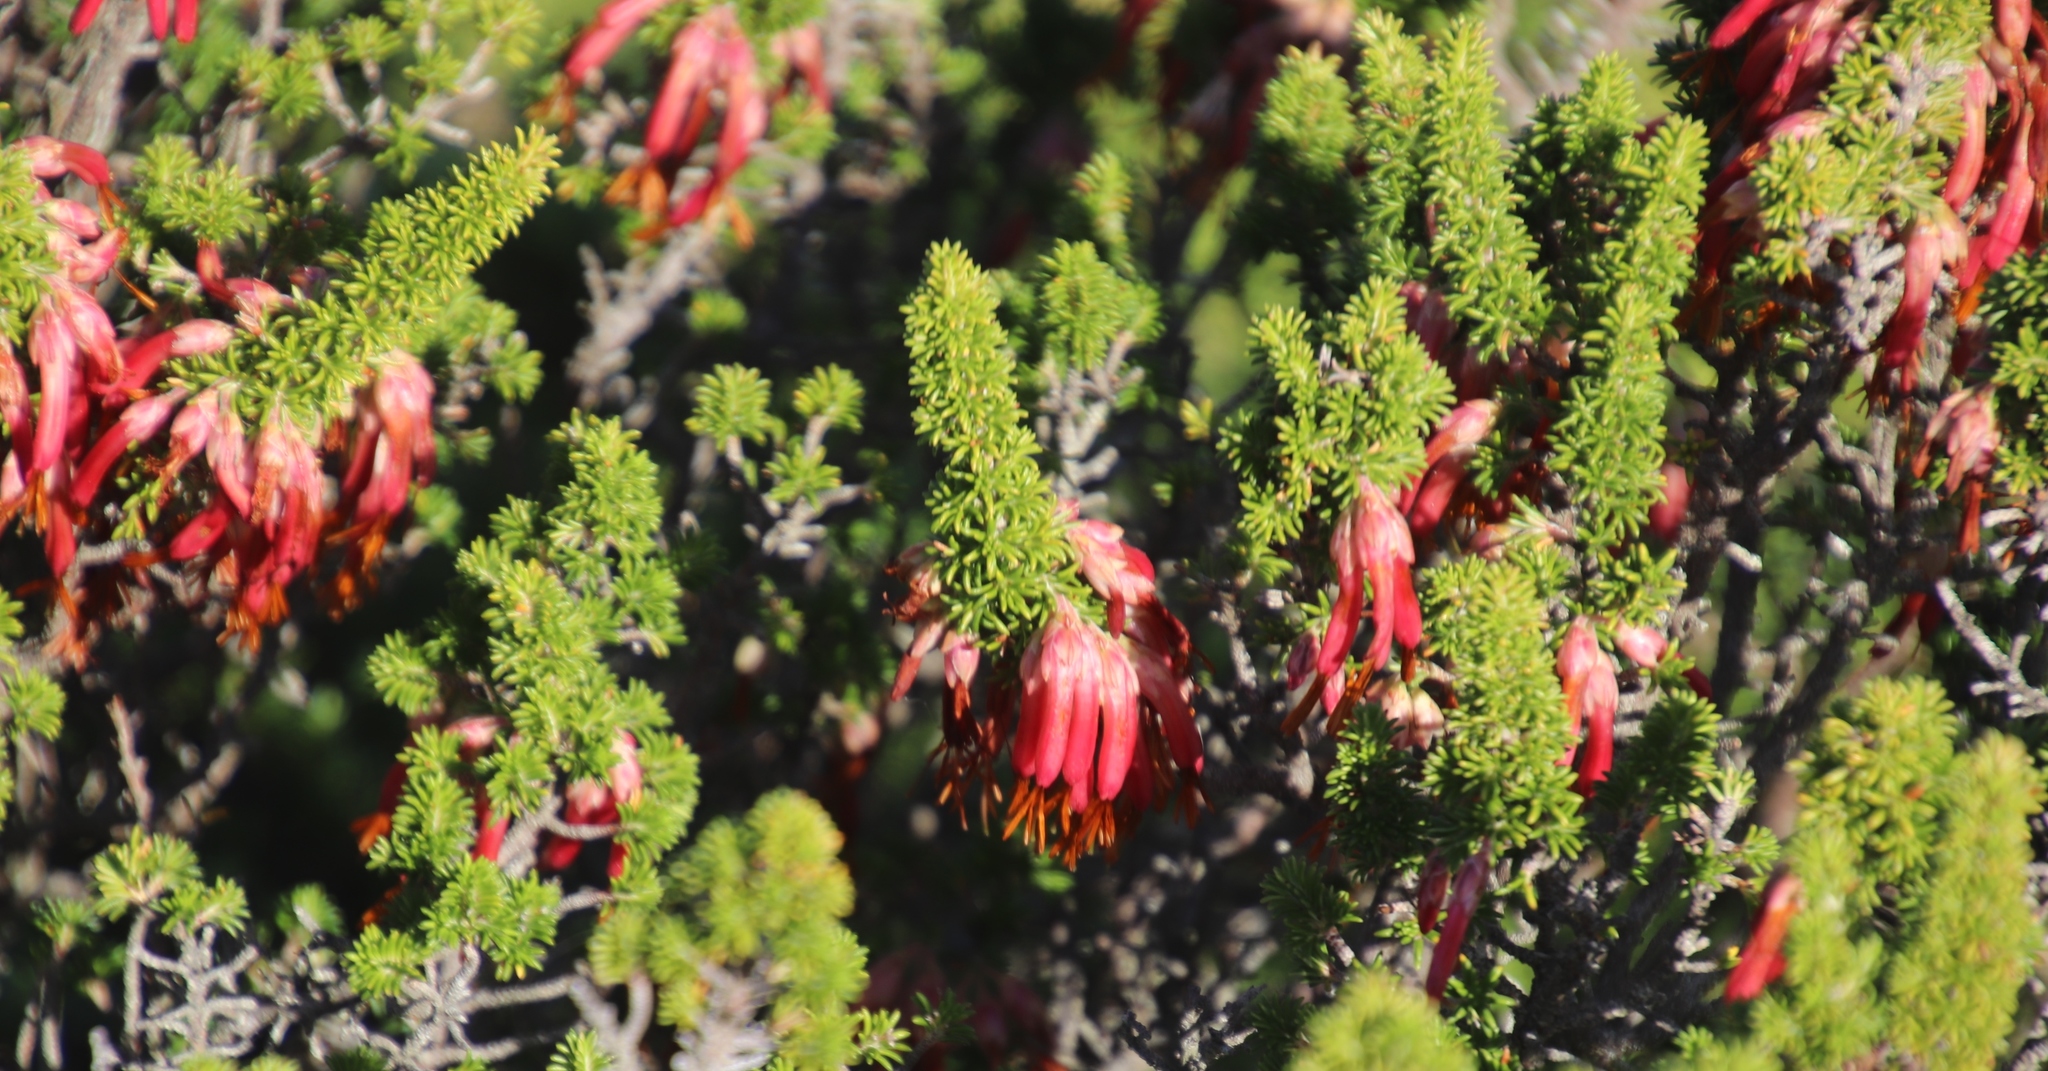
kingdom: Plantae
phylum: Tracheophyta
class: Magnoliopsida
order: Ericales
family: Ericaceae
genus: Erica
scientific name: Erica coccinea
